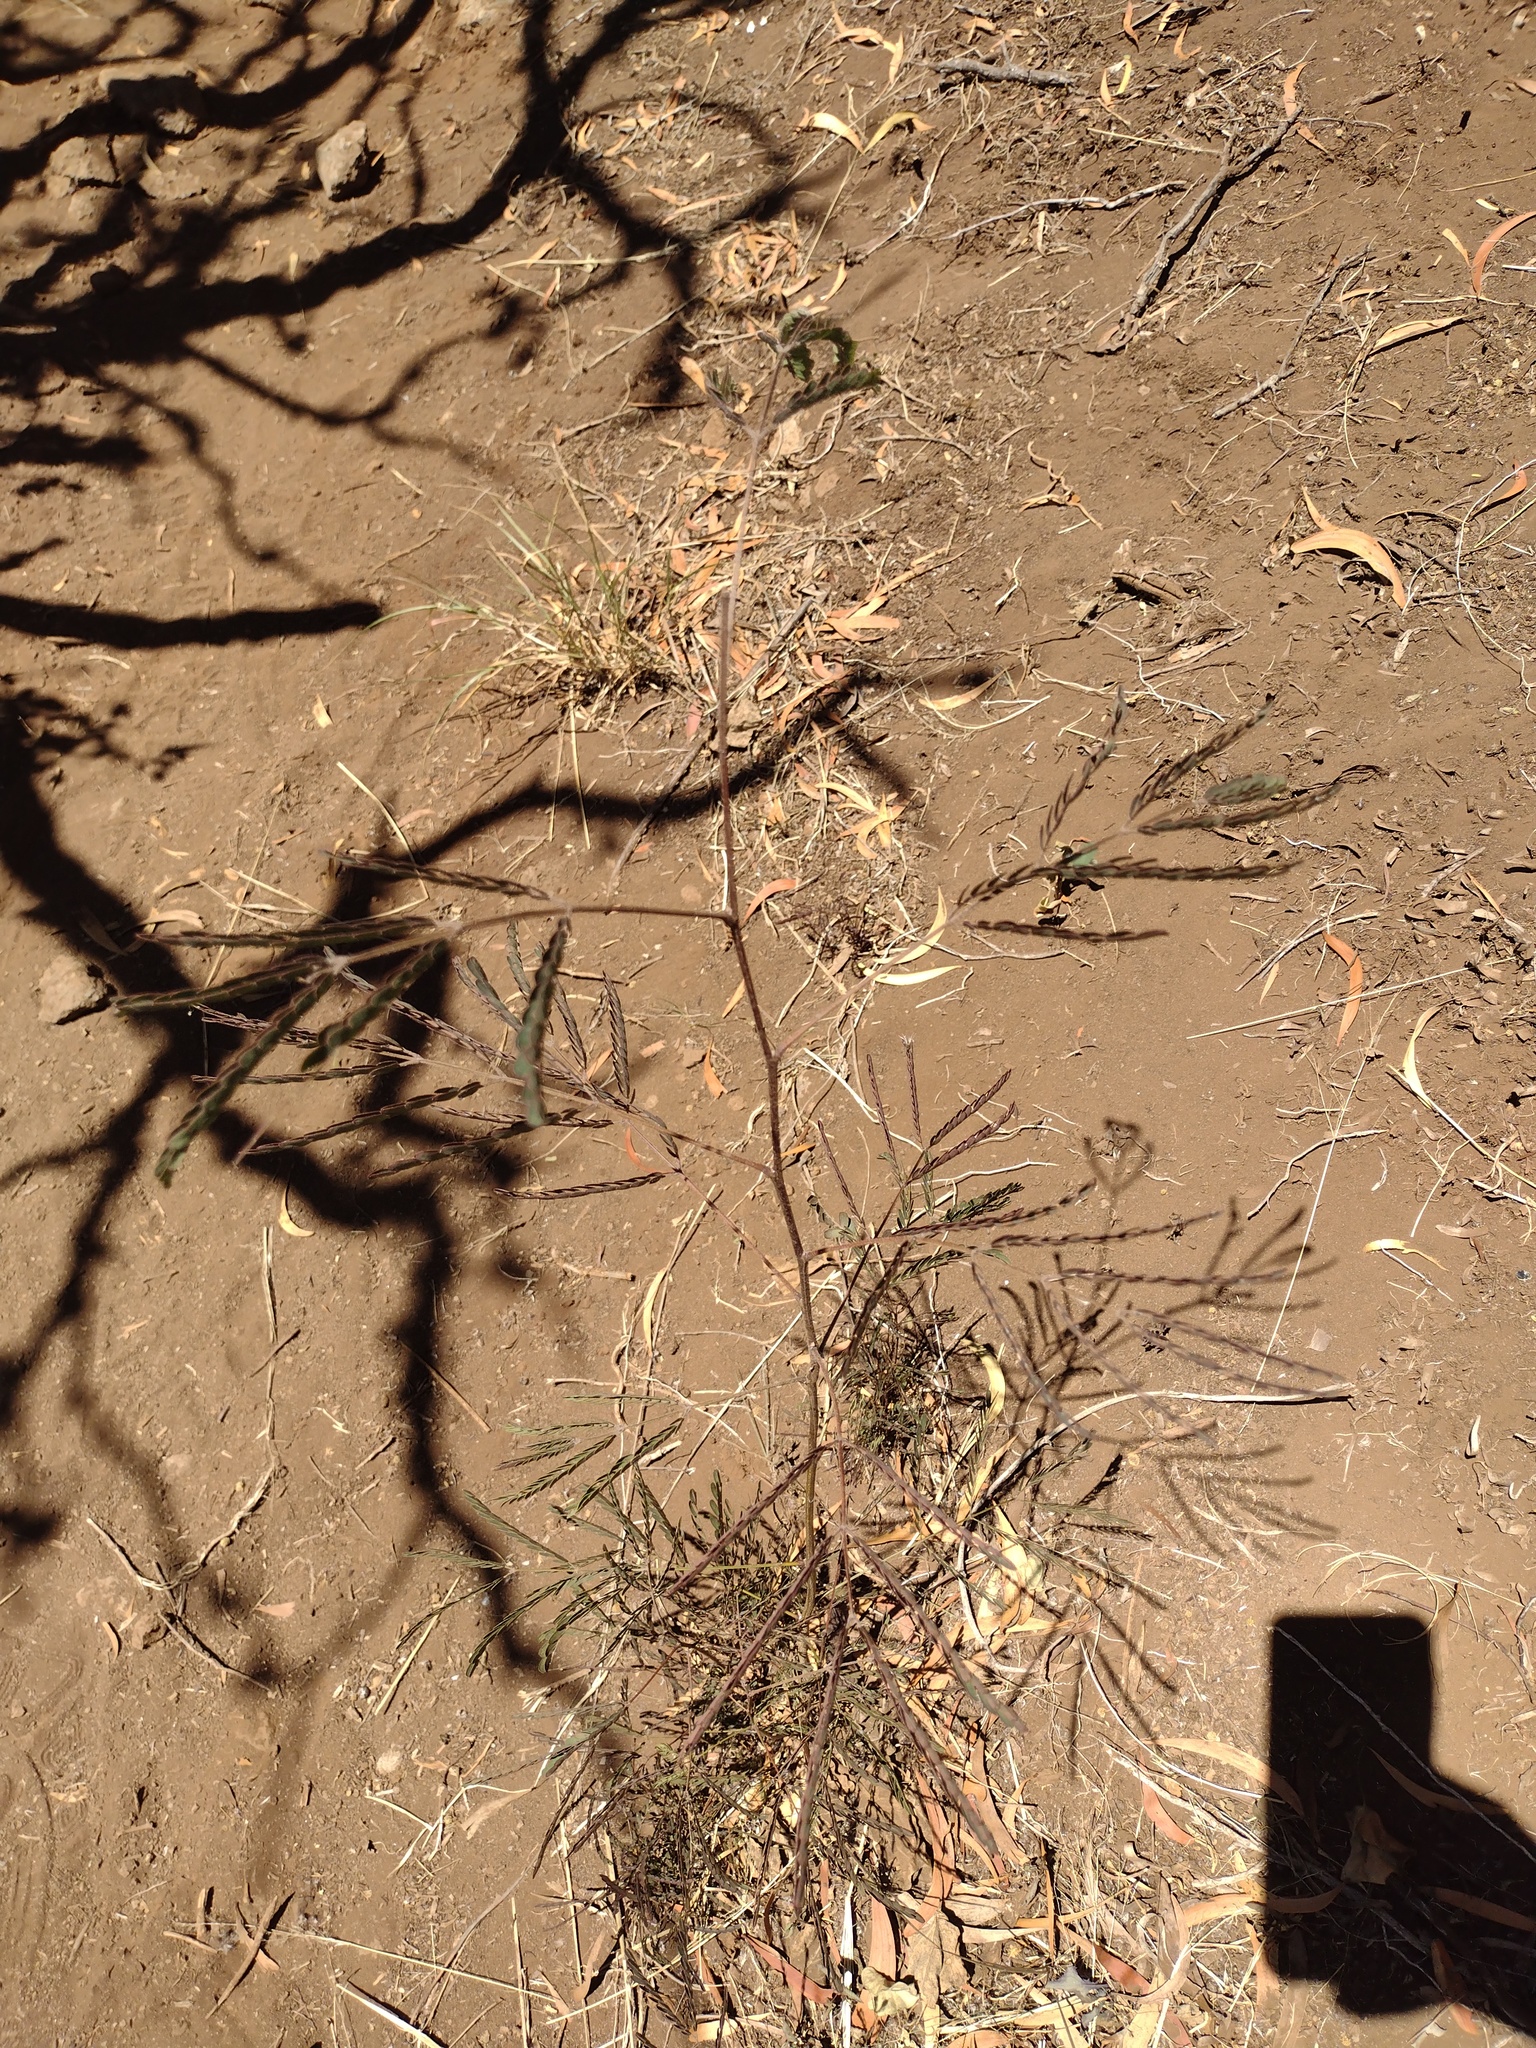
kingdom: Plantae
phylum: Tracheophyta
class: Magnoliopsida
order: Fabales
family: Fabaceae
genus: Leucaena
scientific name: Leucaena leucocephala
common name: White leadtree
